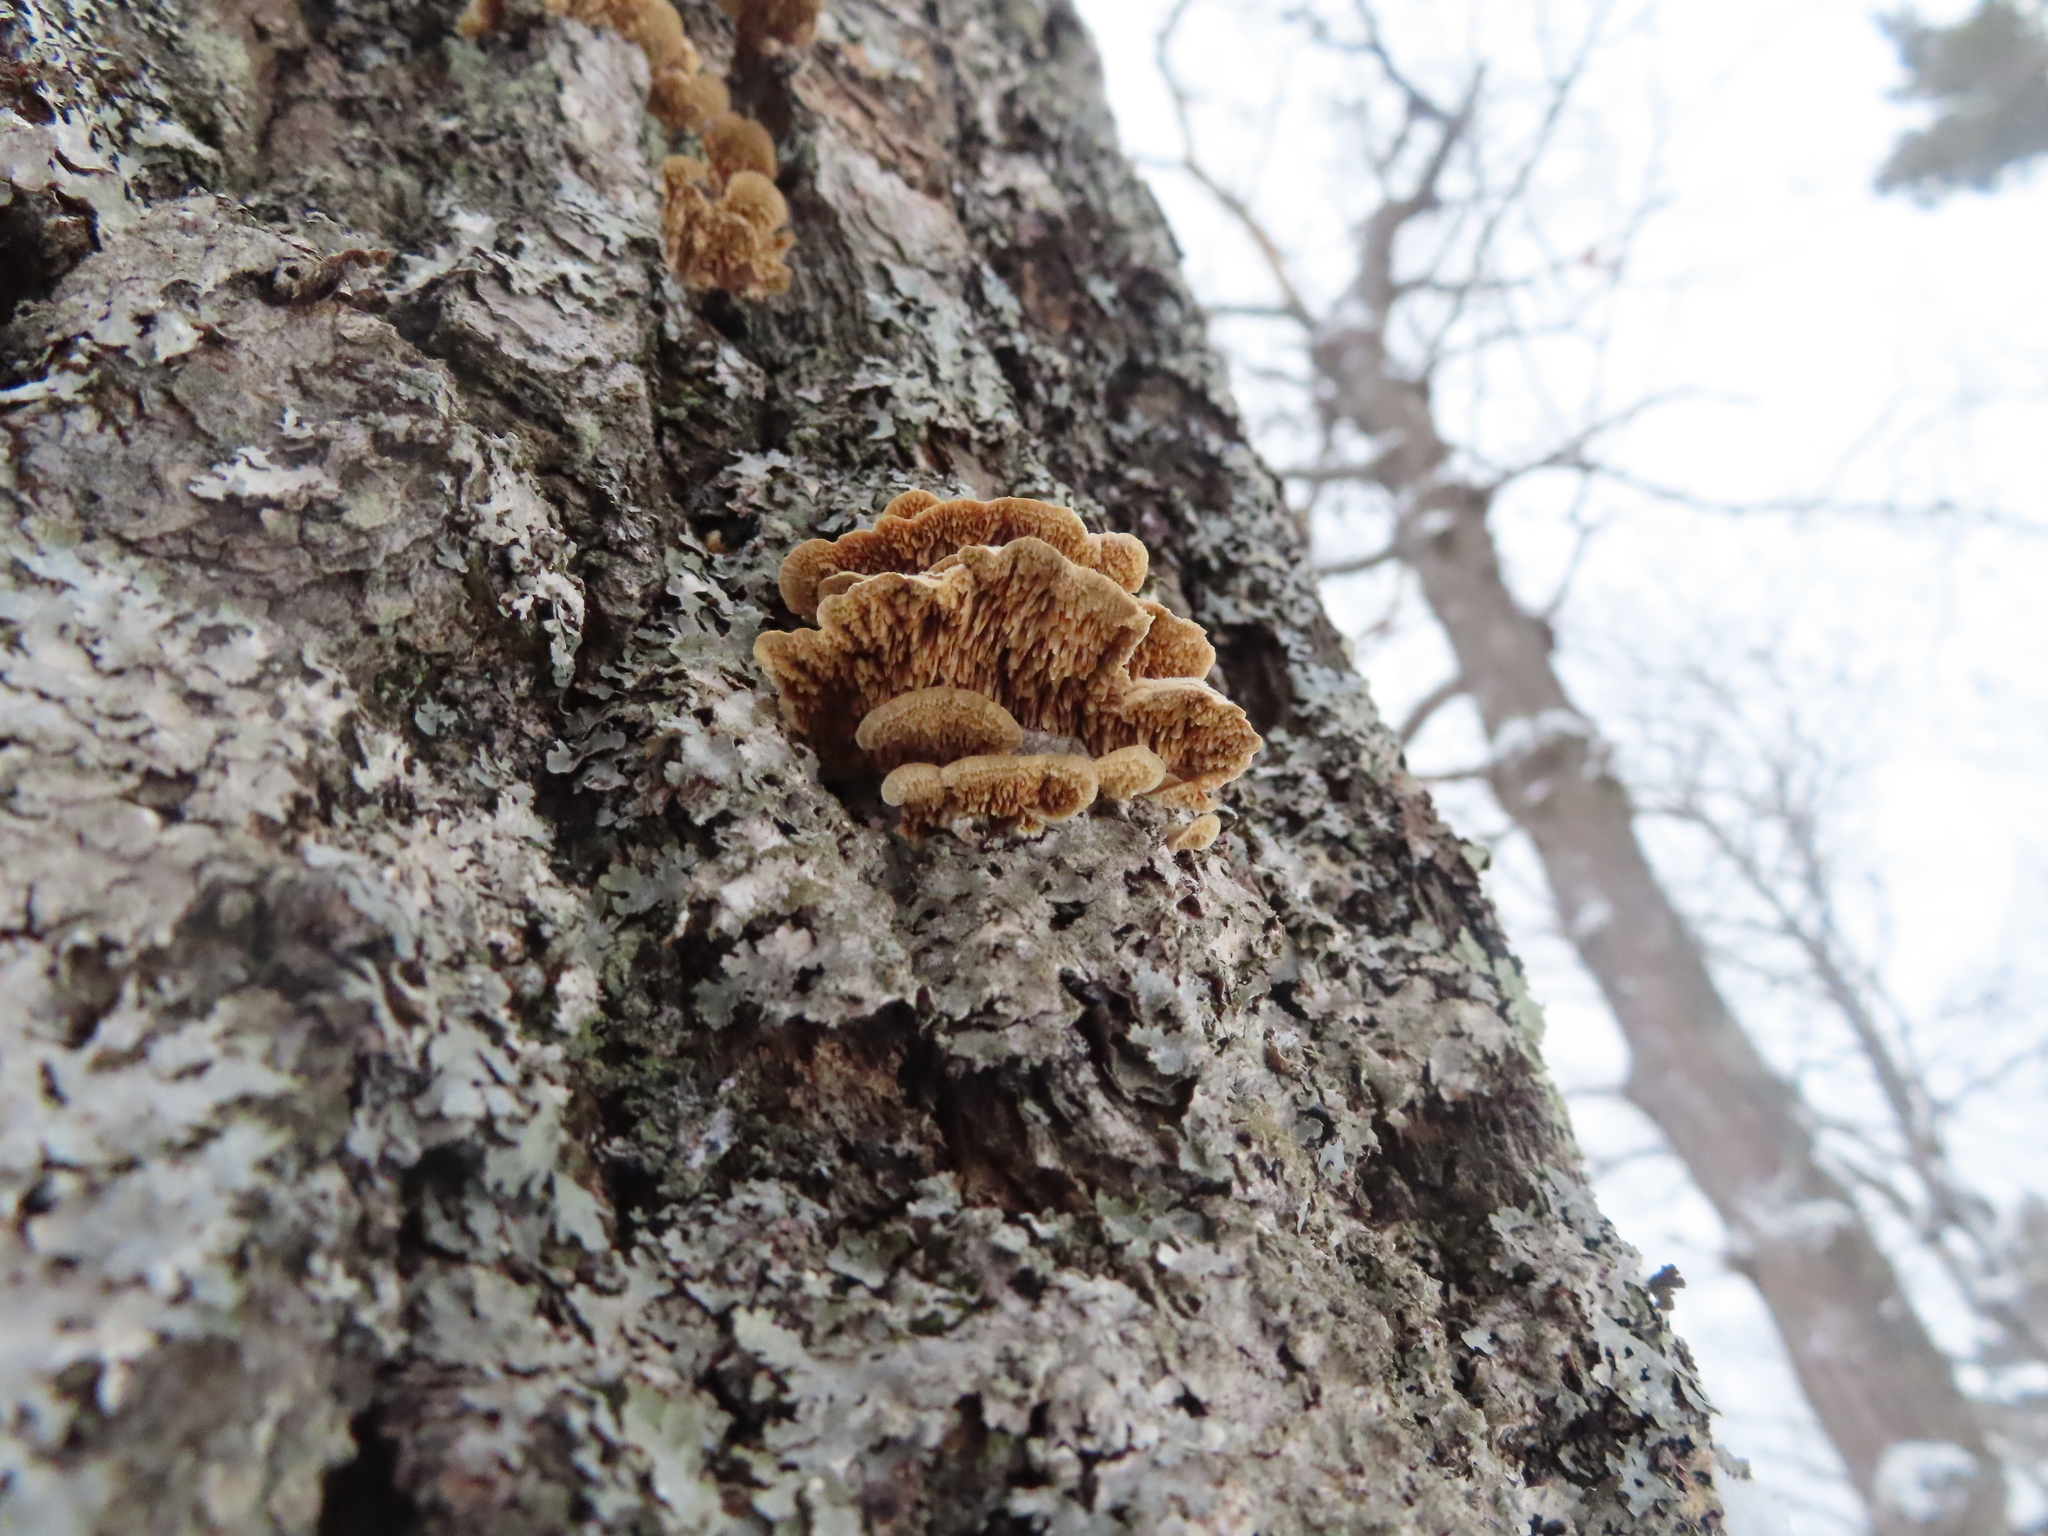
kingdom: Fungi
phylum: Basidiomycota
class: Agaricomycetes
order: Polyporales
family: Cerrenaceae
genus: Cerrena
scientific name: Cerrena unicolor
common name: Mossy maze polypore
